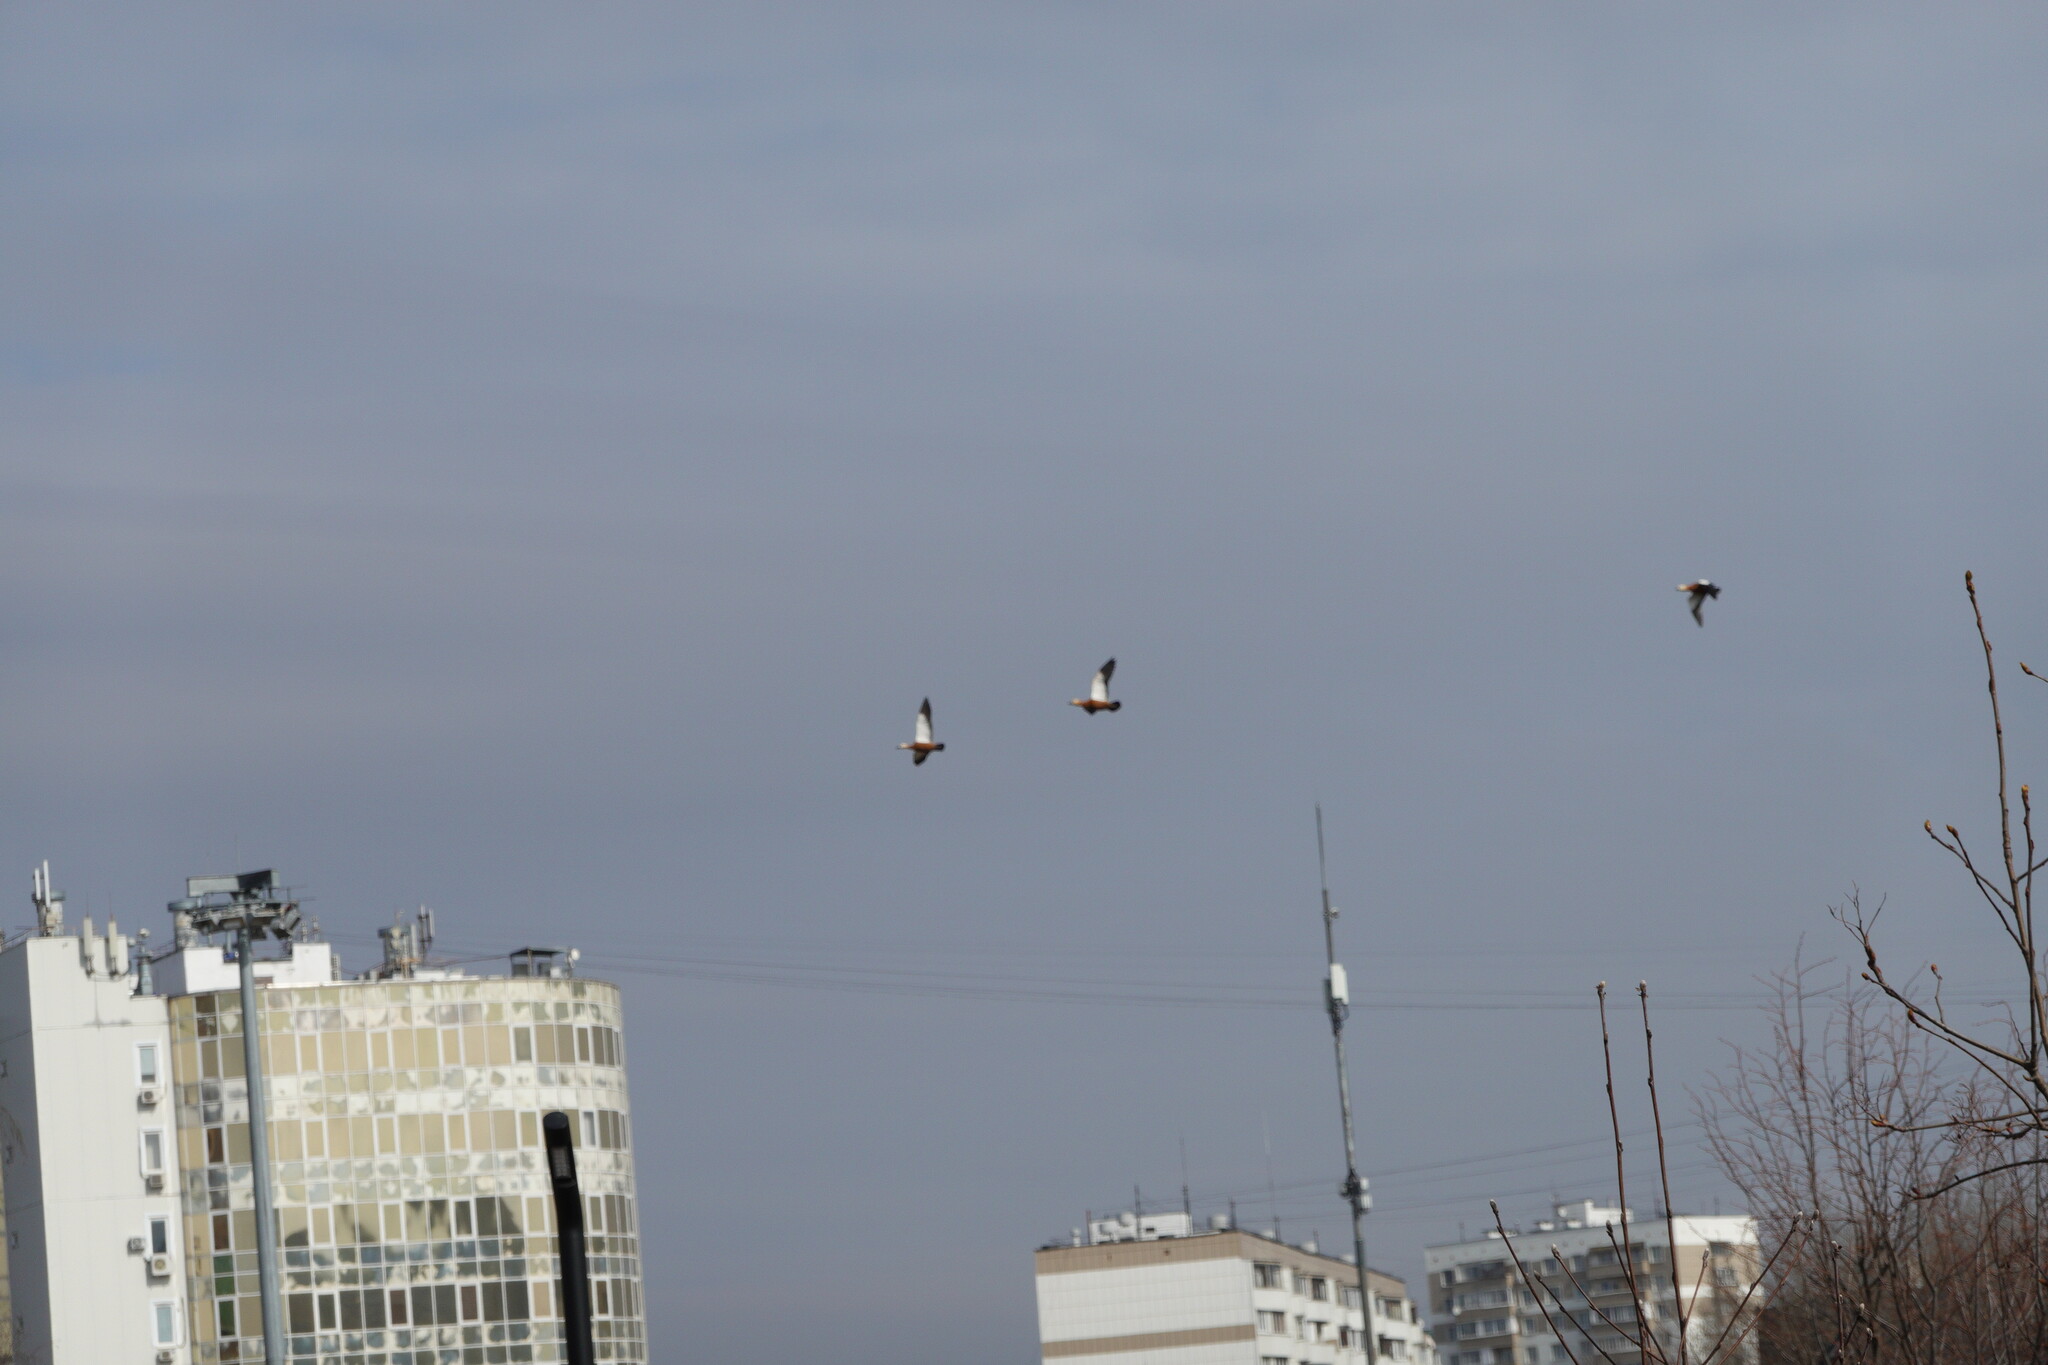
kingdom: Animalia
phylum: Chordata
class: Aves
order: Anseriformes
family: Anatidae
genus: Tadorna
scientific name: Tadorna ferruginea
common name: Ruddy shelduck
